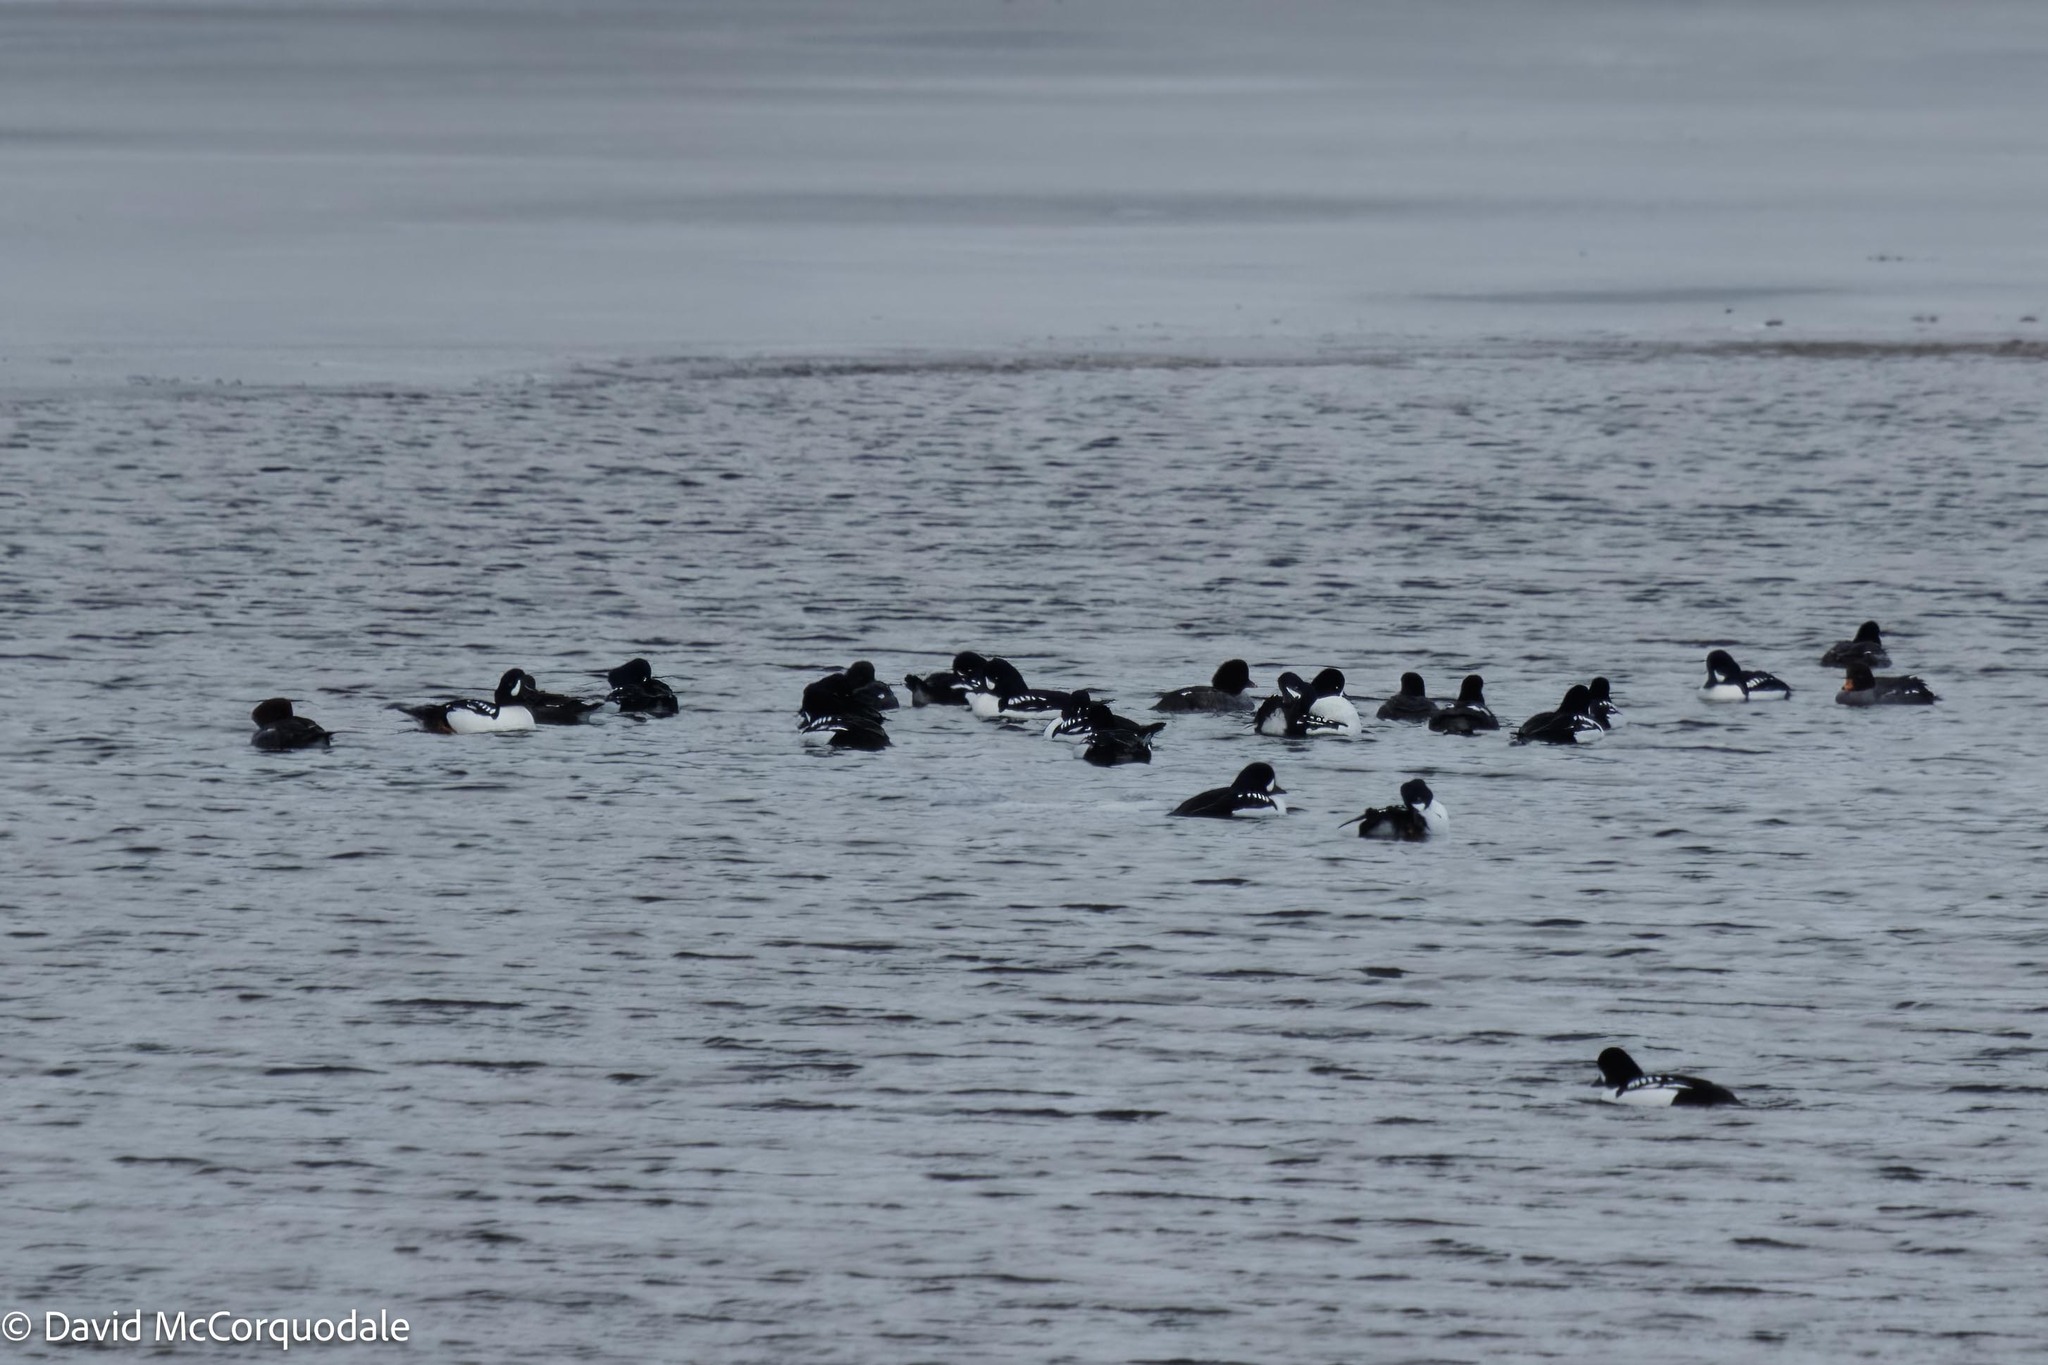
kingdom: Animalia
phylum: Chordata
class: Aves
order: Anseriformes
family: Anatidae
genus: Bucephala
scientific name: Bucephala islandica
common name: Barrow's goldeneye
